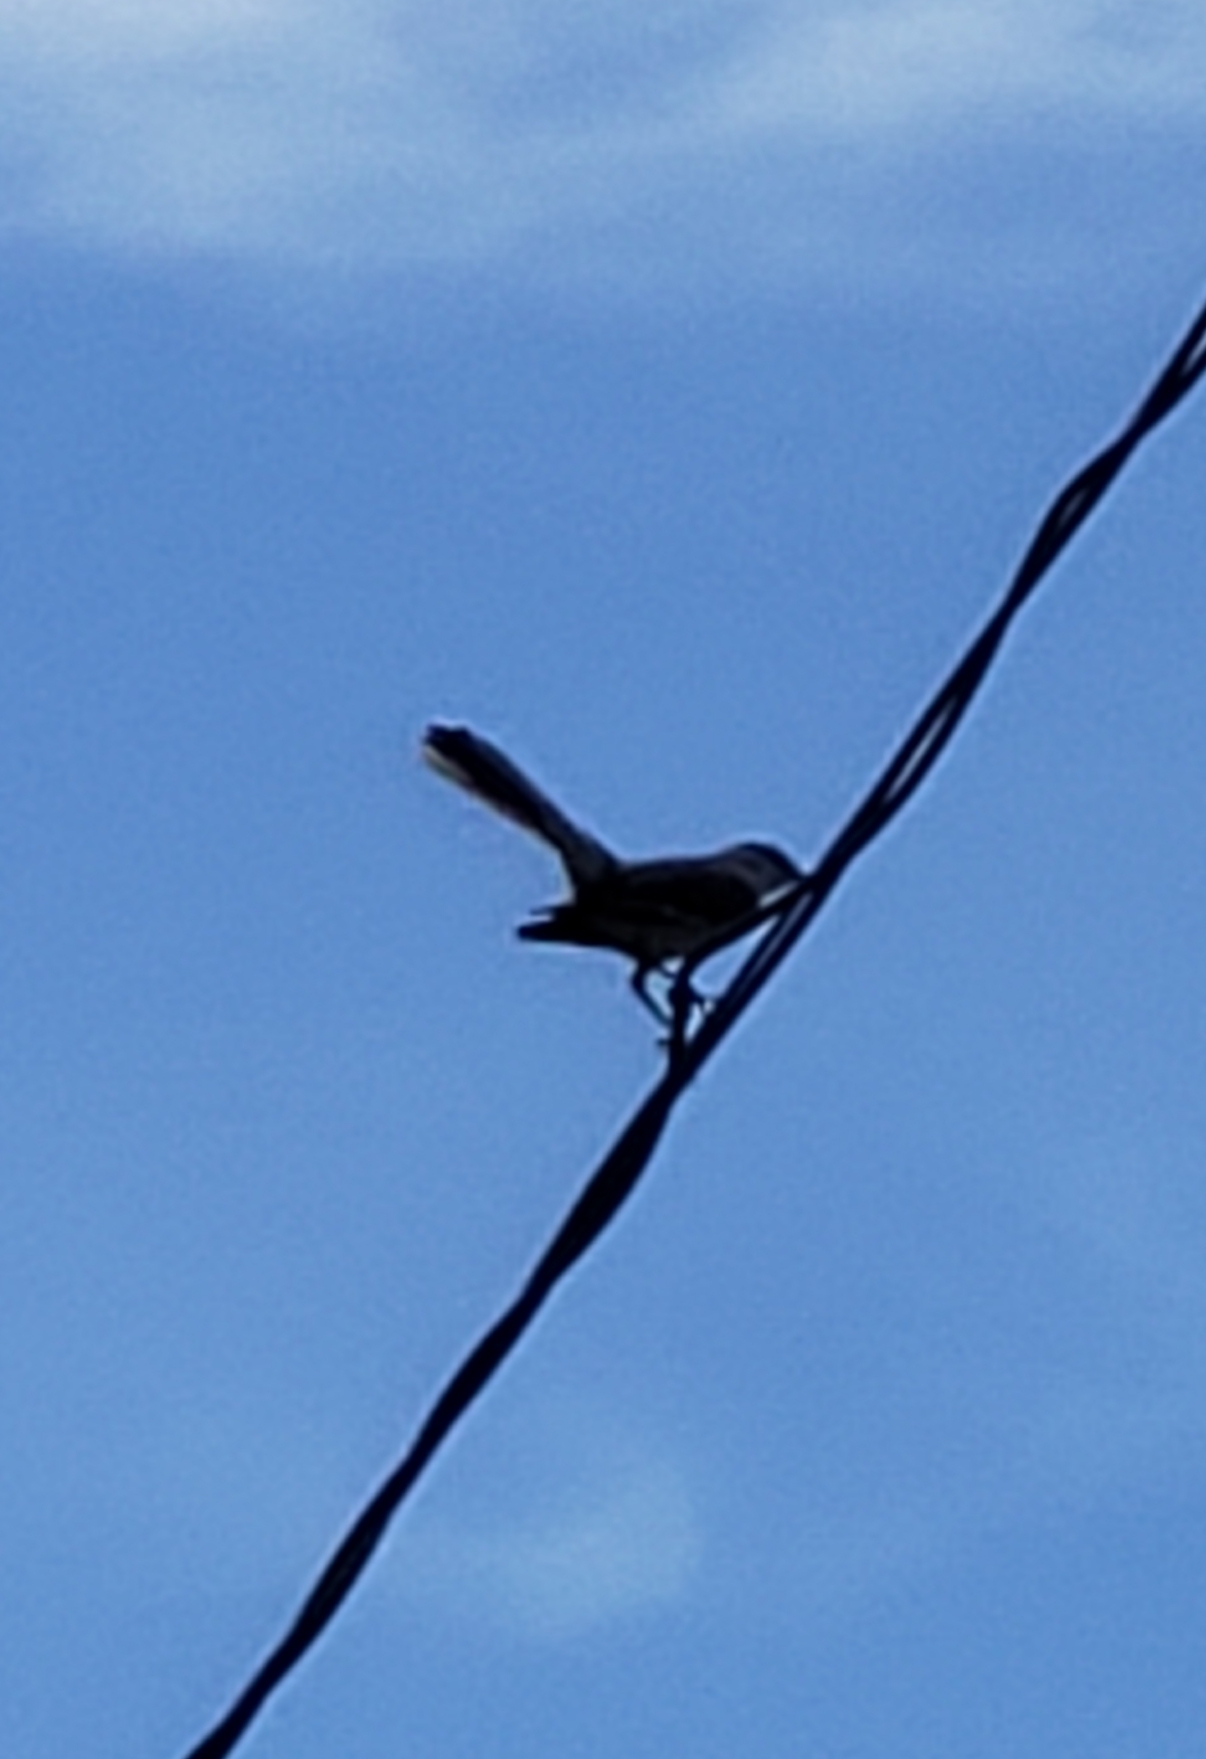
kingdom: Animalia
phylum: Chordata
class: Aves
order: Passeriformes
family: Mimidae
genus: Mimus
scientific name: Mimus polyglottos
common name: Northern mockingbird
